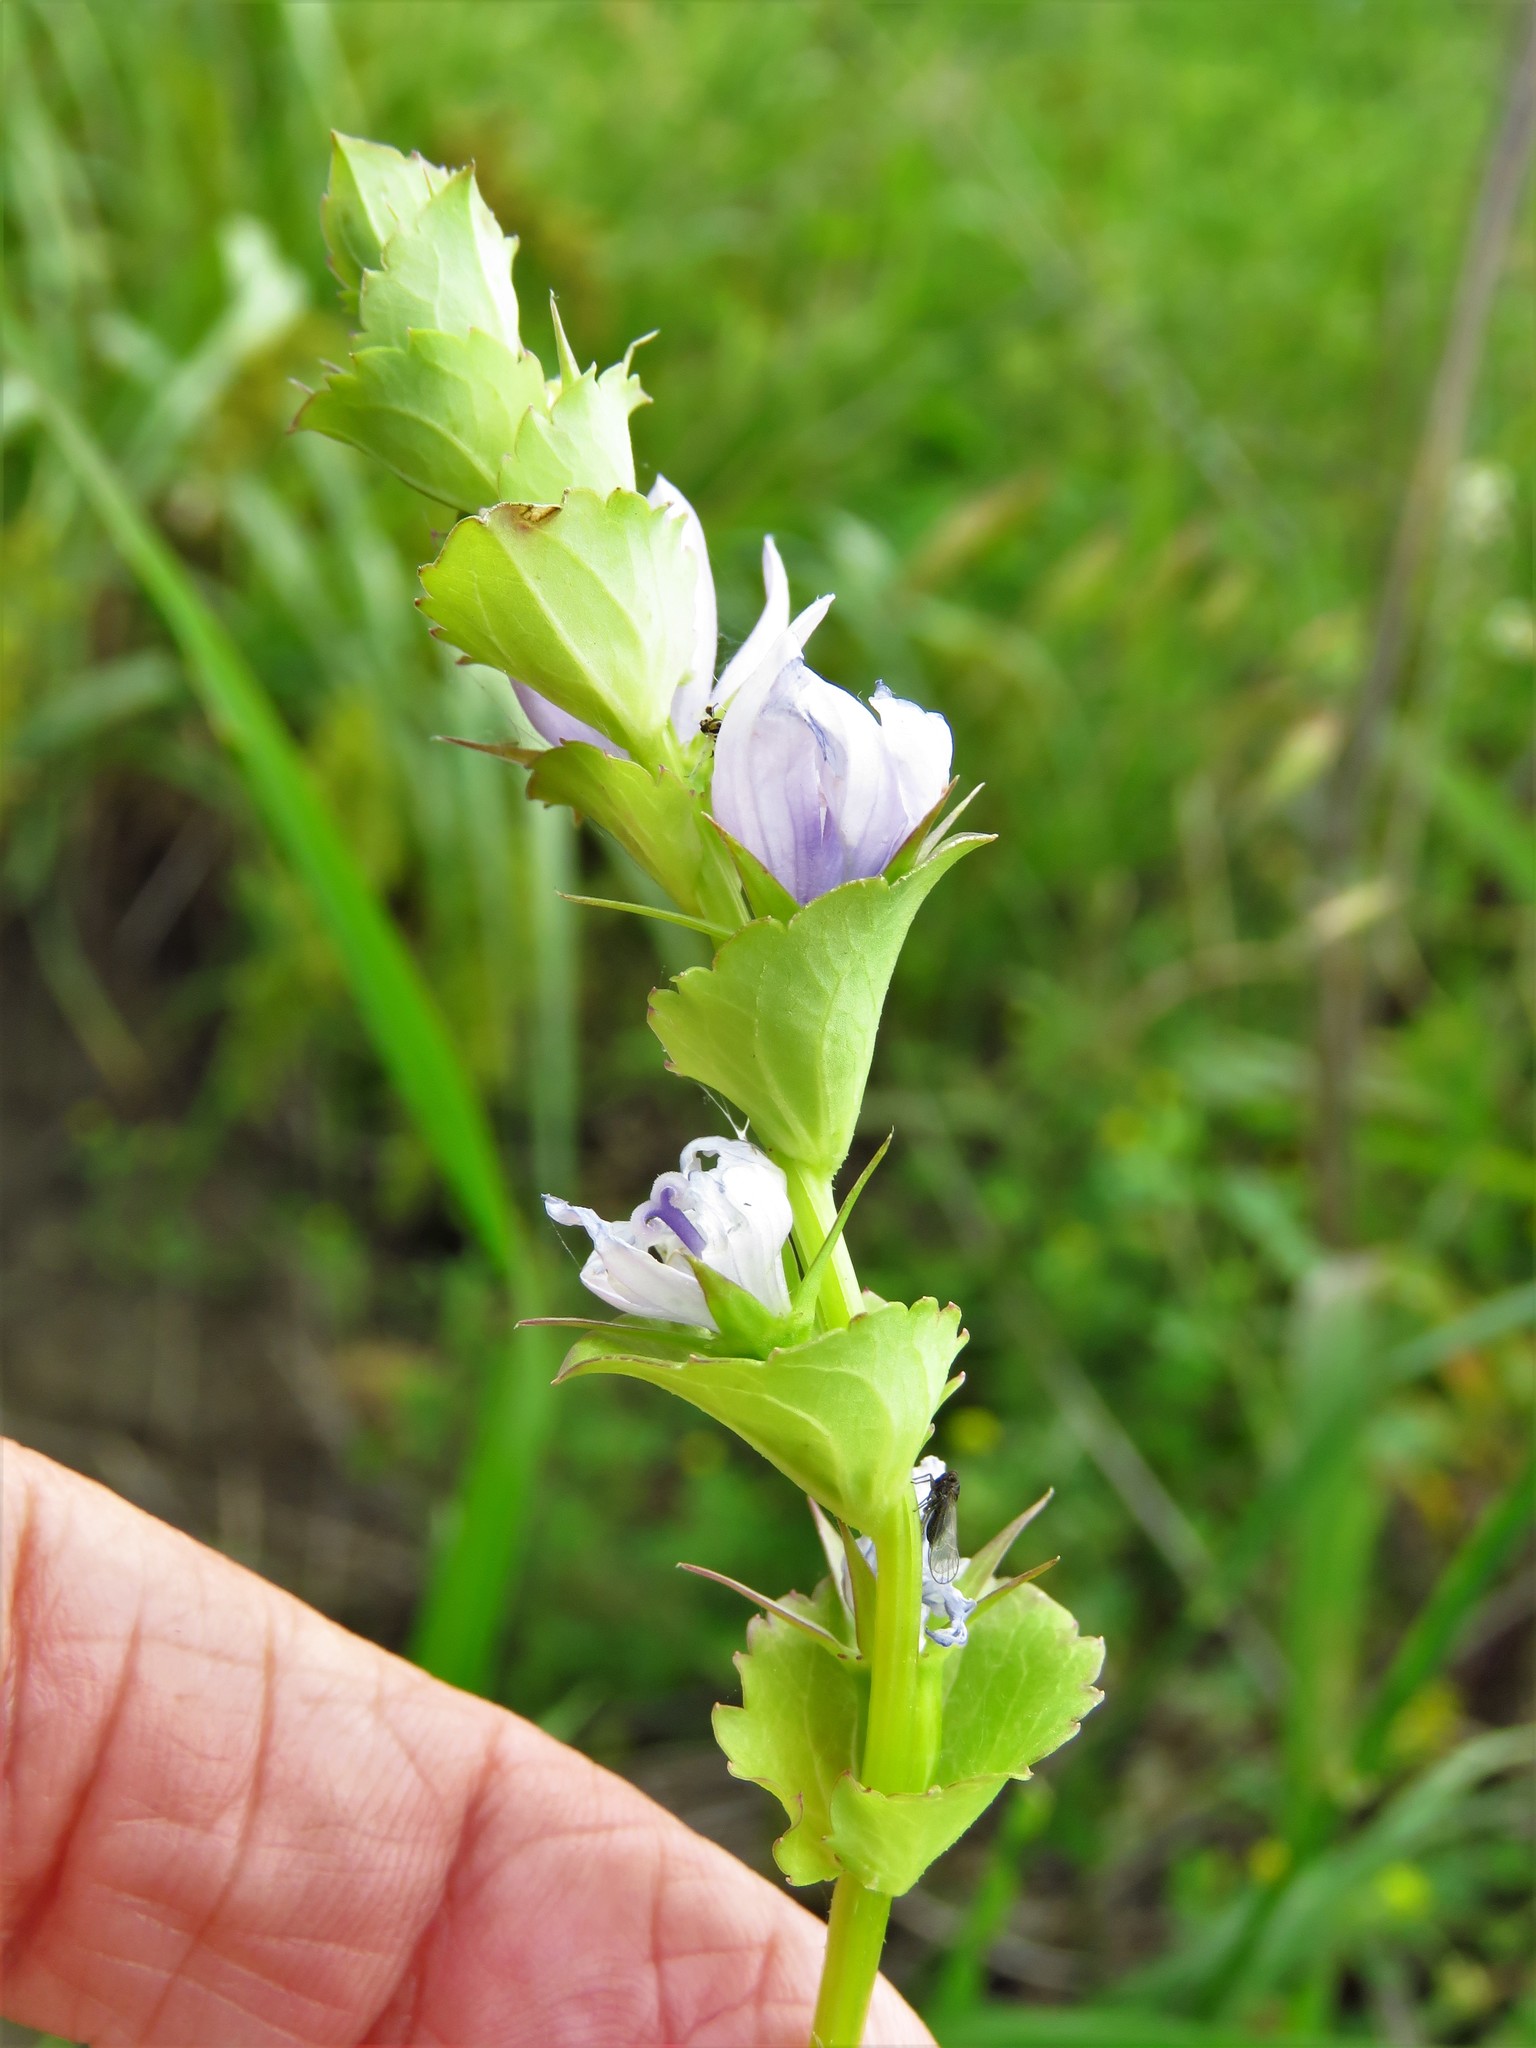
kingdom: Plantae
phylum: Tracheophyta
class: Magnoliopsida
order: Asterales
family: Campanulaceae
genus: Triodanis
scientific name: Triodanis perfoliata
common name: Clasping venus' looking-glass
